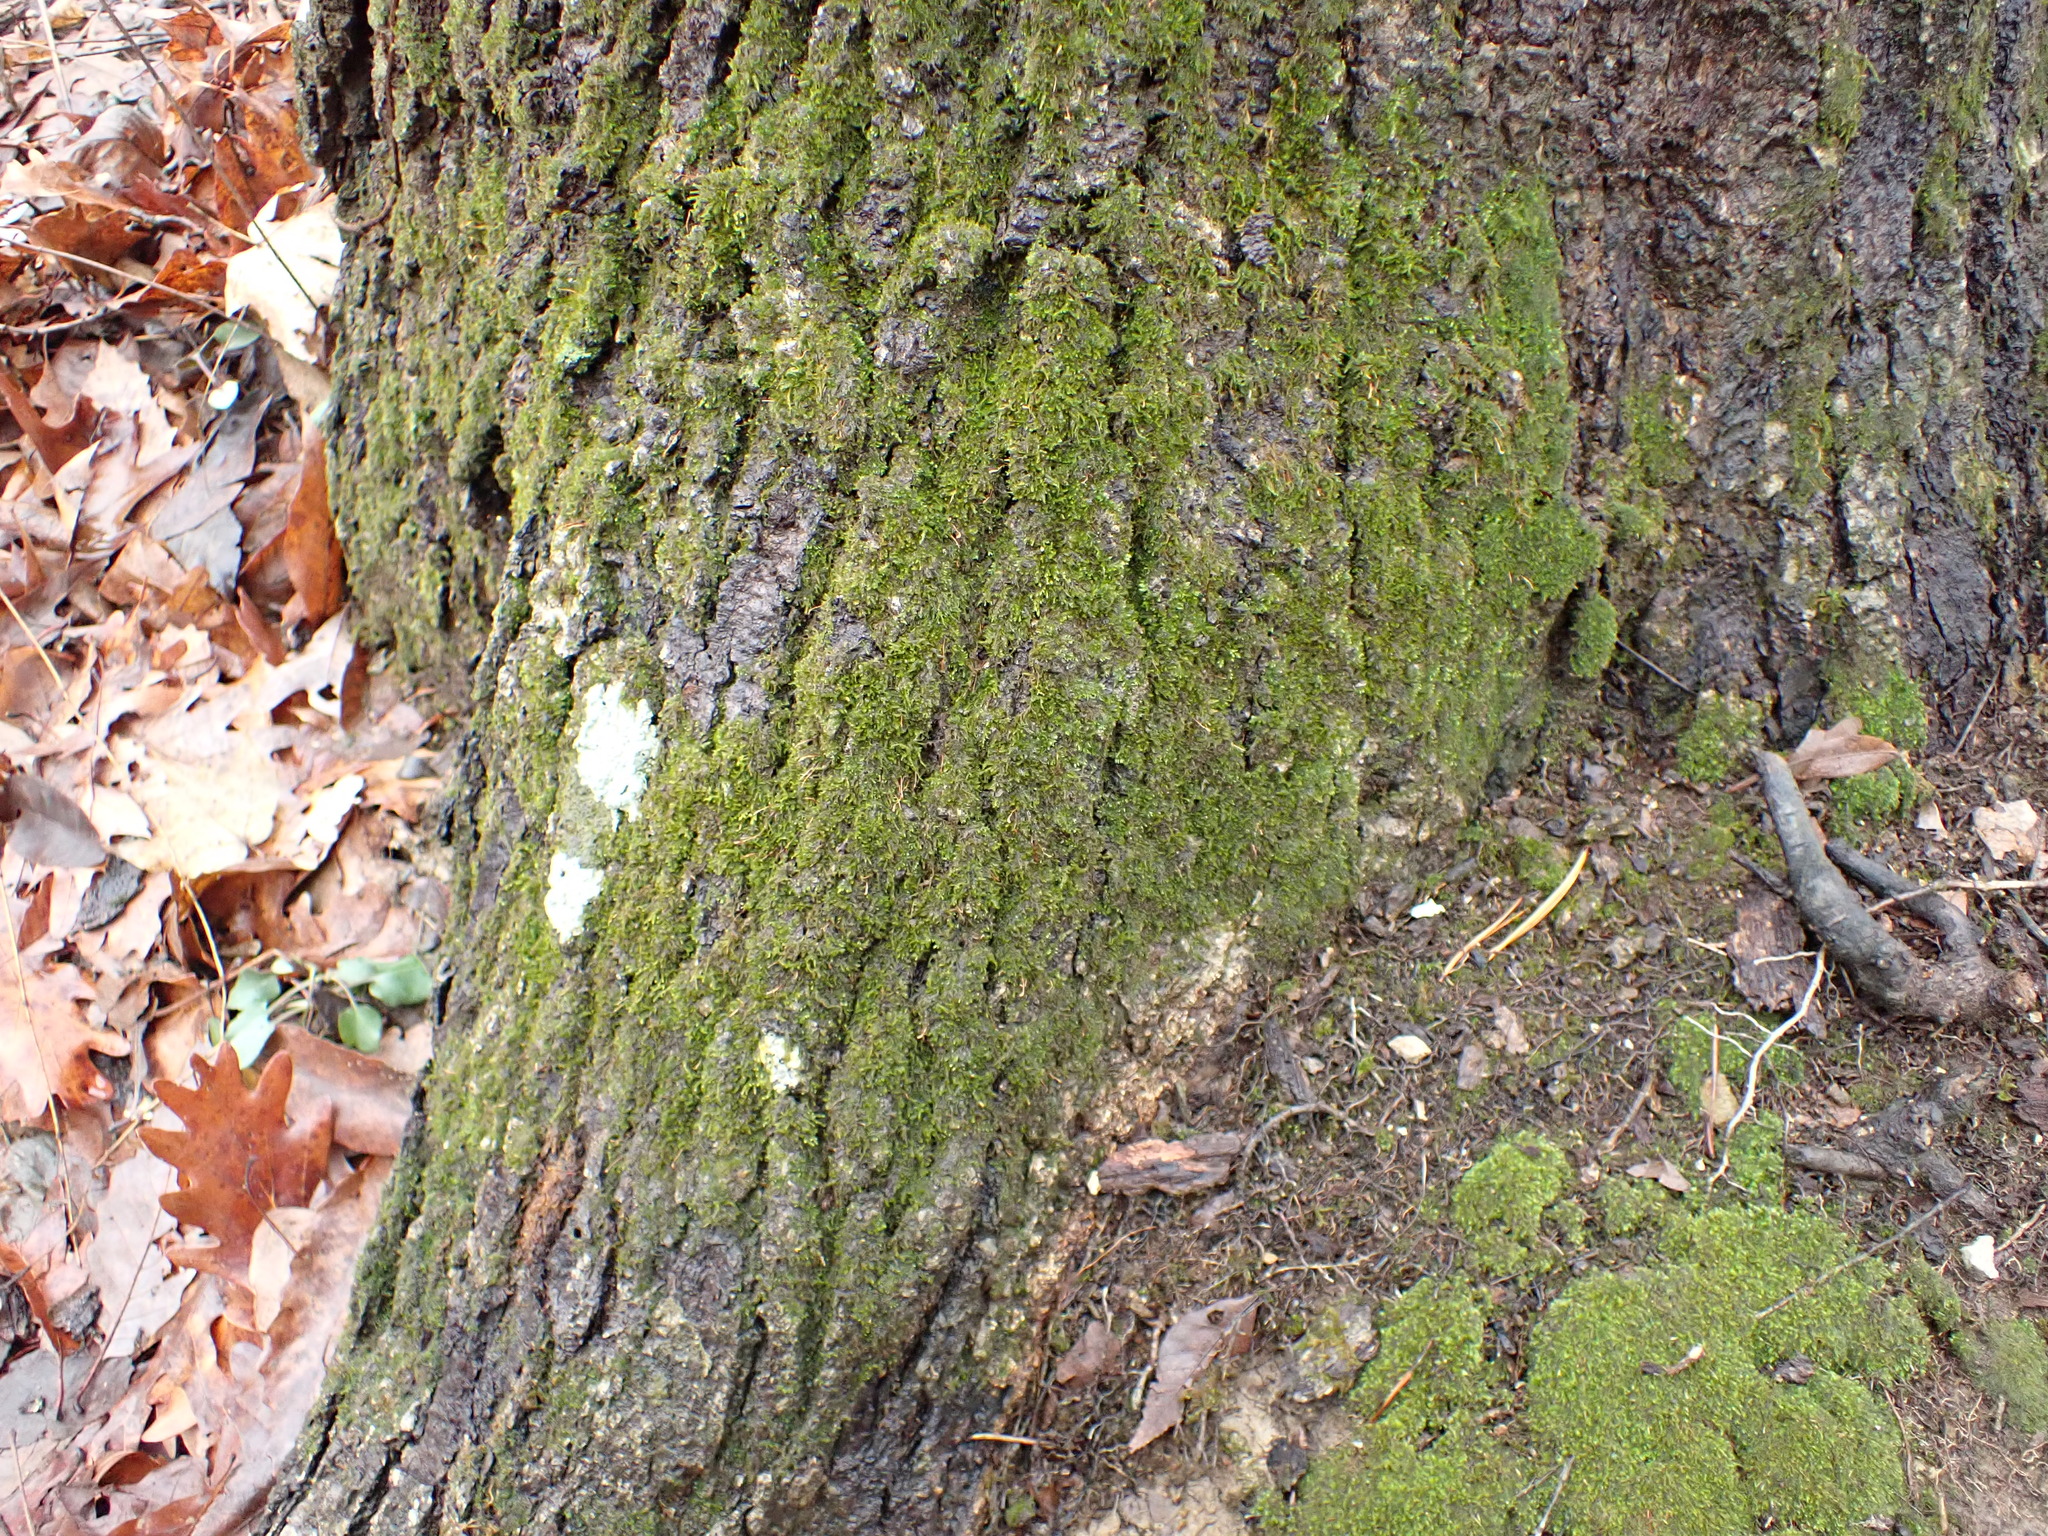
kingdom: Plantae
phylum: Bryophyta
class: Bryopsida
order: Hypnales
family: Neckeraceae
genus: Pseudanomodon
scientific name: Pseudanomodon attenuatus
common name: Tree-skirt moss
